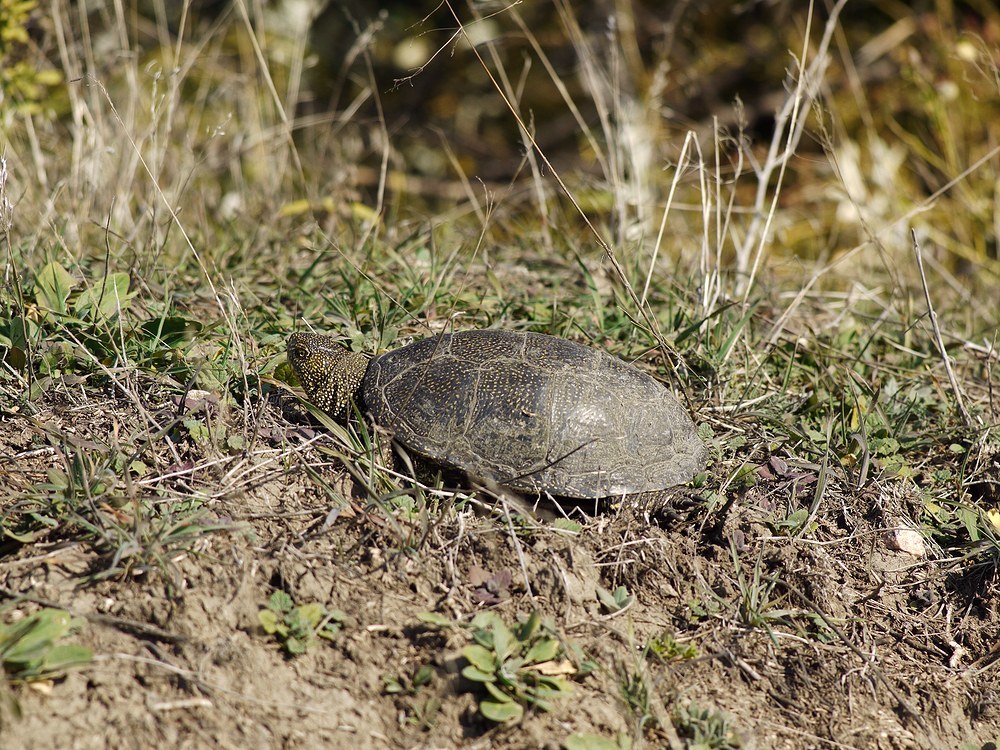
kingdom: Animalia
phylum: Chordata
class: Testudines
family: Emydidae
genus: Emys
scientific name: Emys orbicularis
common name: European pond turtle
